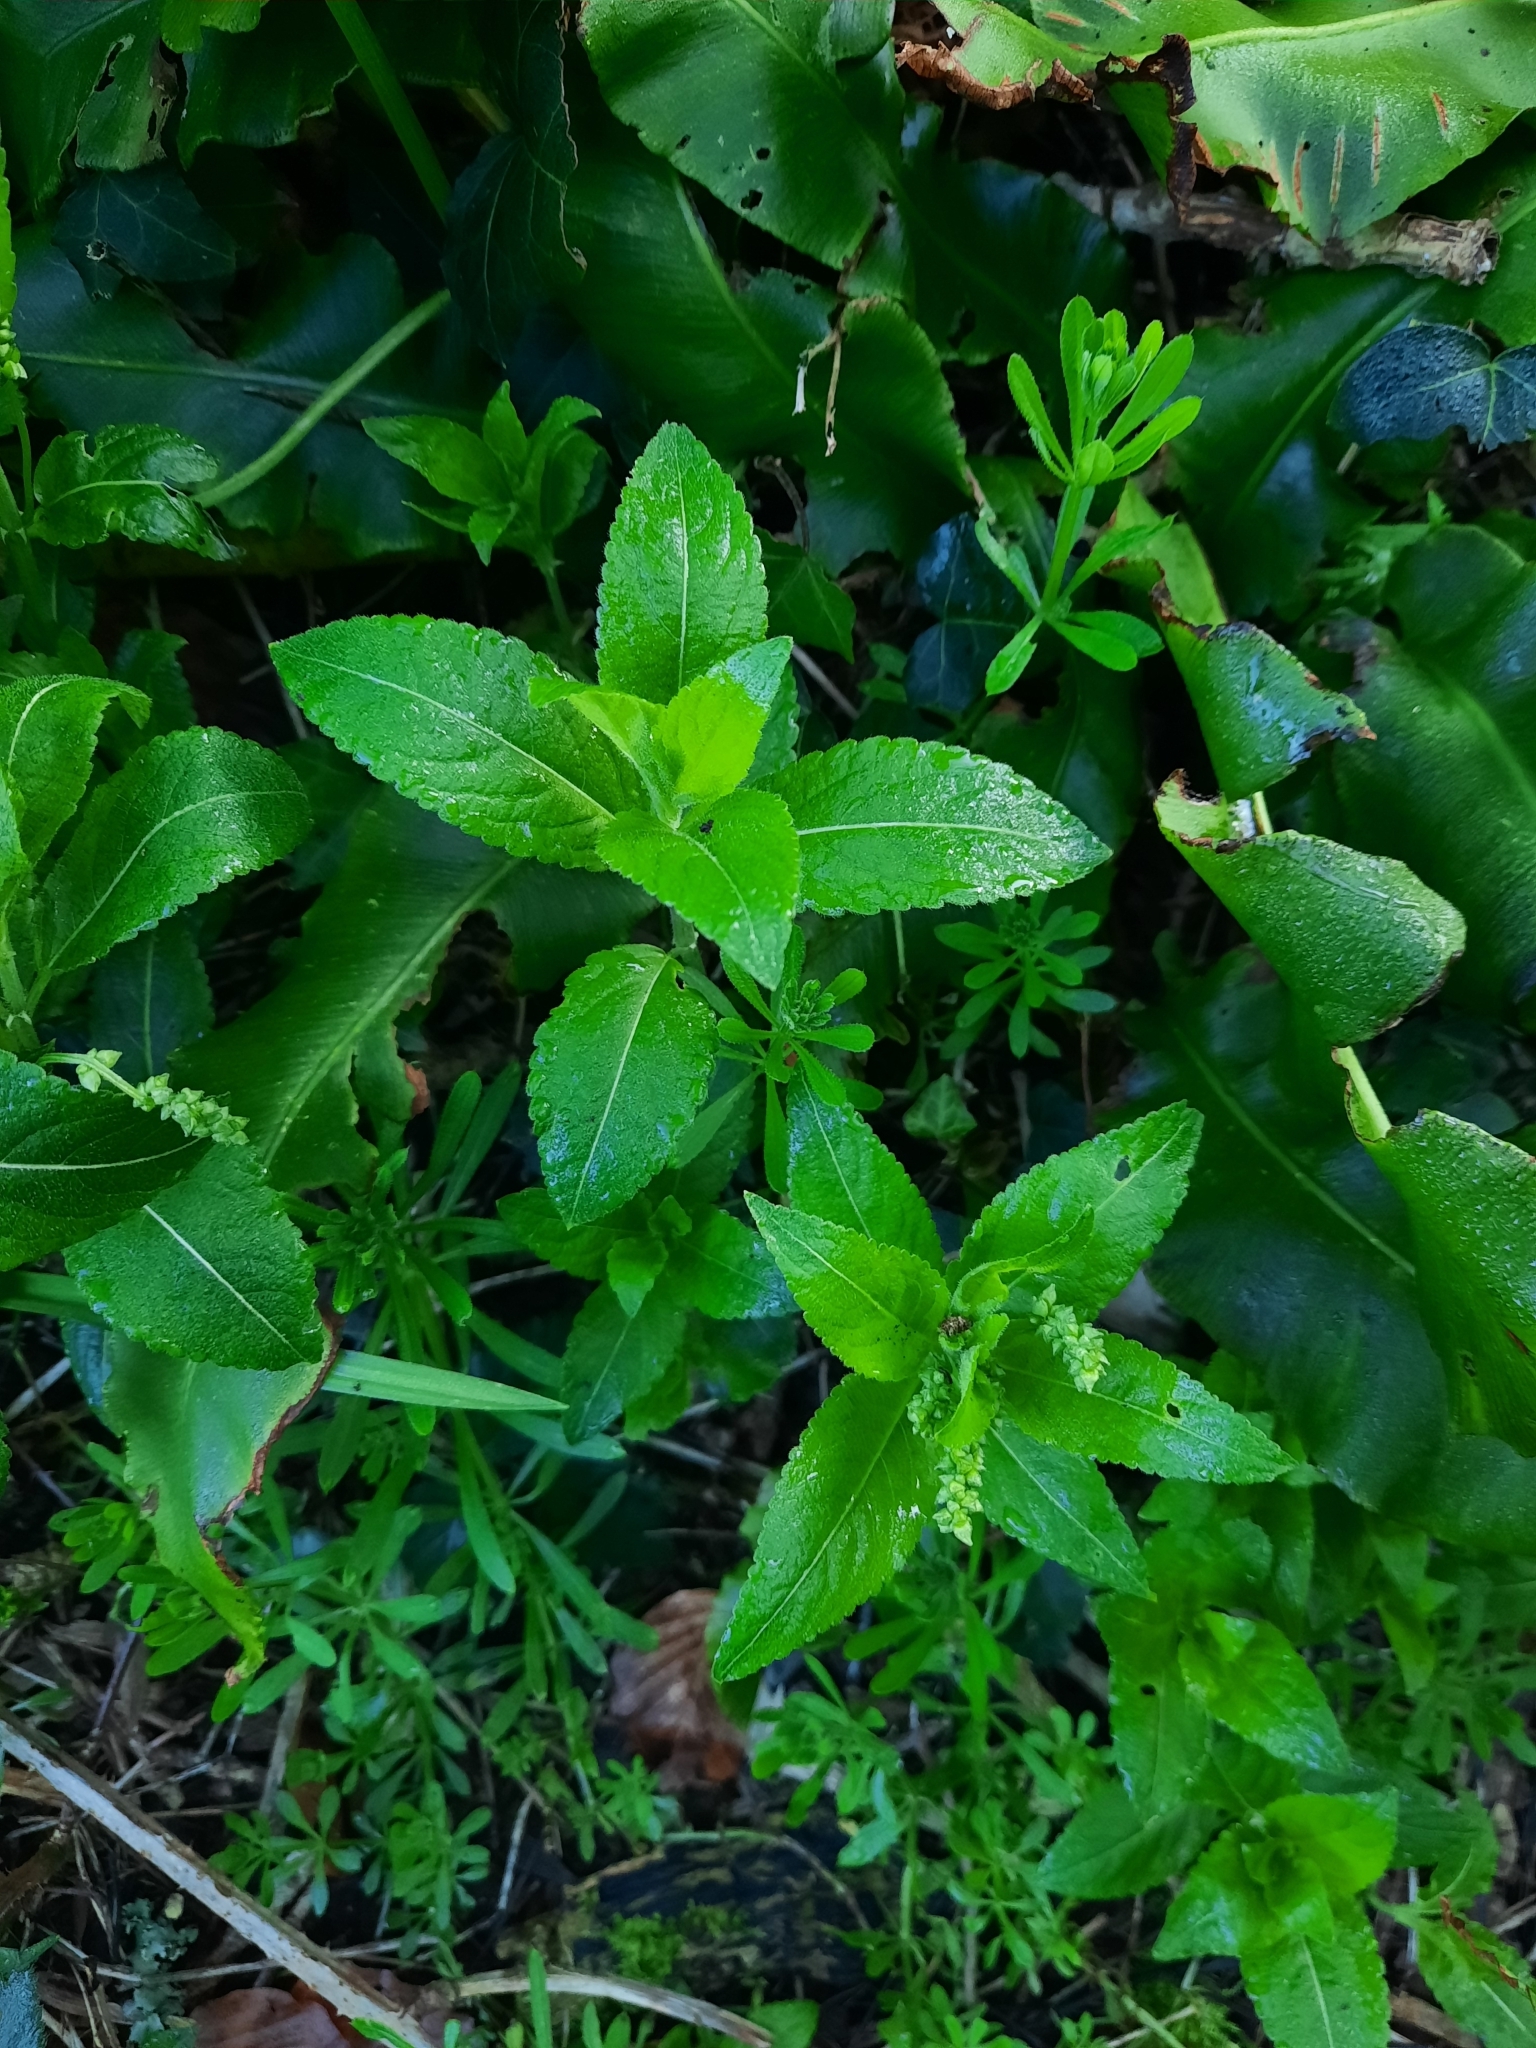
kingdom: Plantae
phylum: Tracheophyta
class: Magnoliopsida
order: Malpighiales
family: Euphorbiaceae
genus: Mercurialis
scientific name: Mercurialis perennis
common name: Dog mercury
